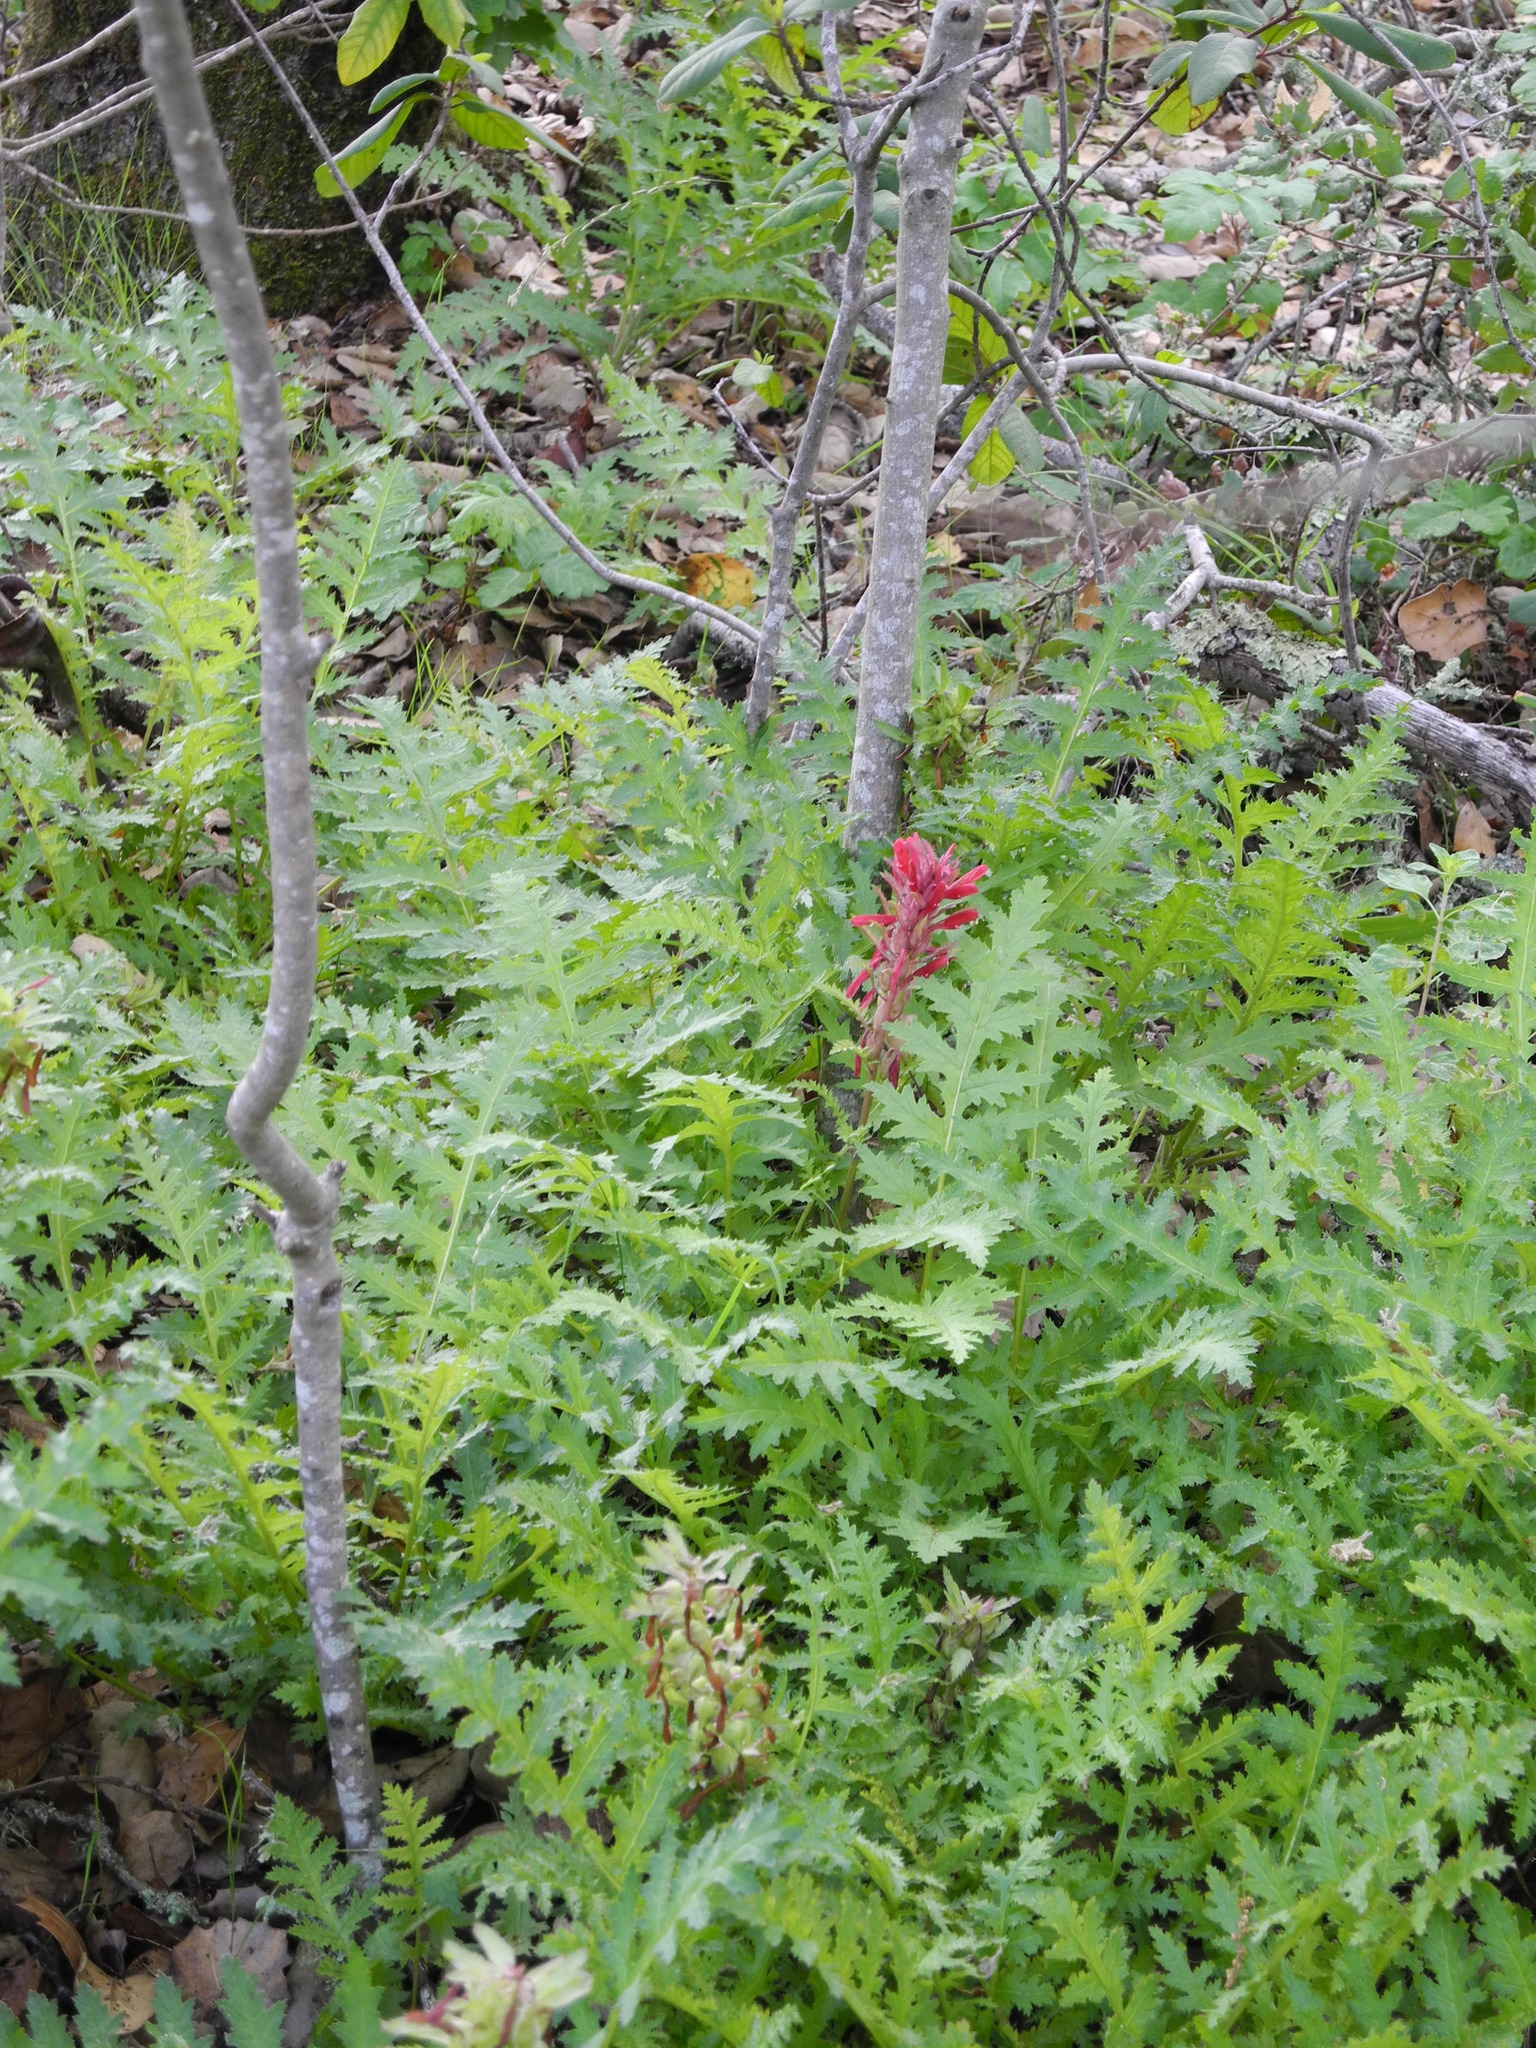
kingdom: Plantae
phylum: Tracheophyta
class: Magnoliopsida
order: Lamiales
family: Orobanchaceae
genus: Pedicularis
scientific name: Pedicularis densiflora
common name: Indian warrior
